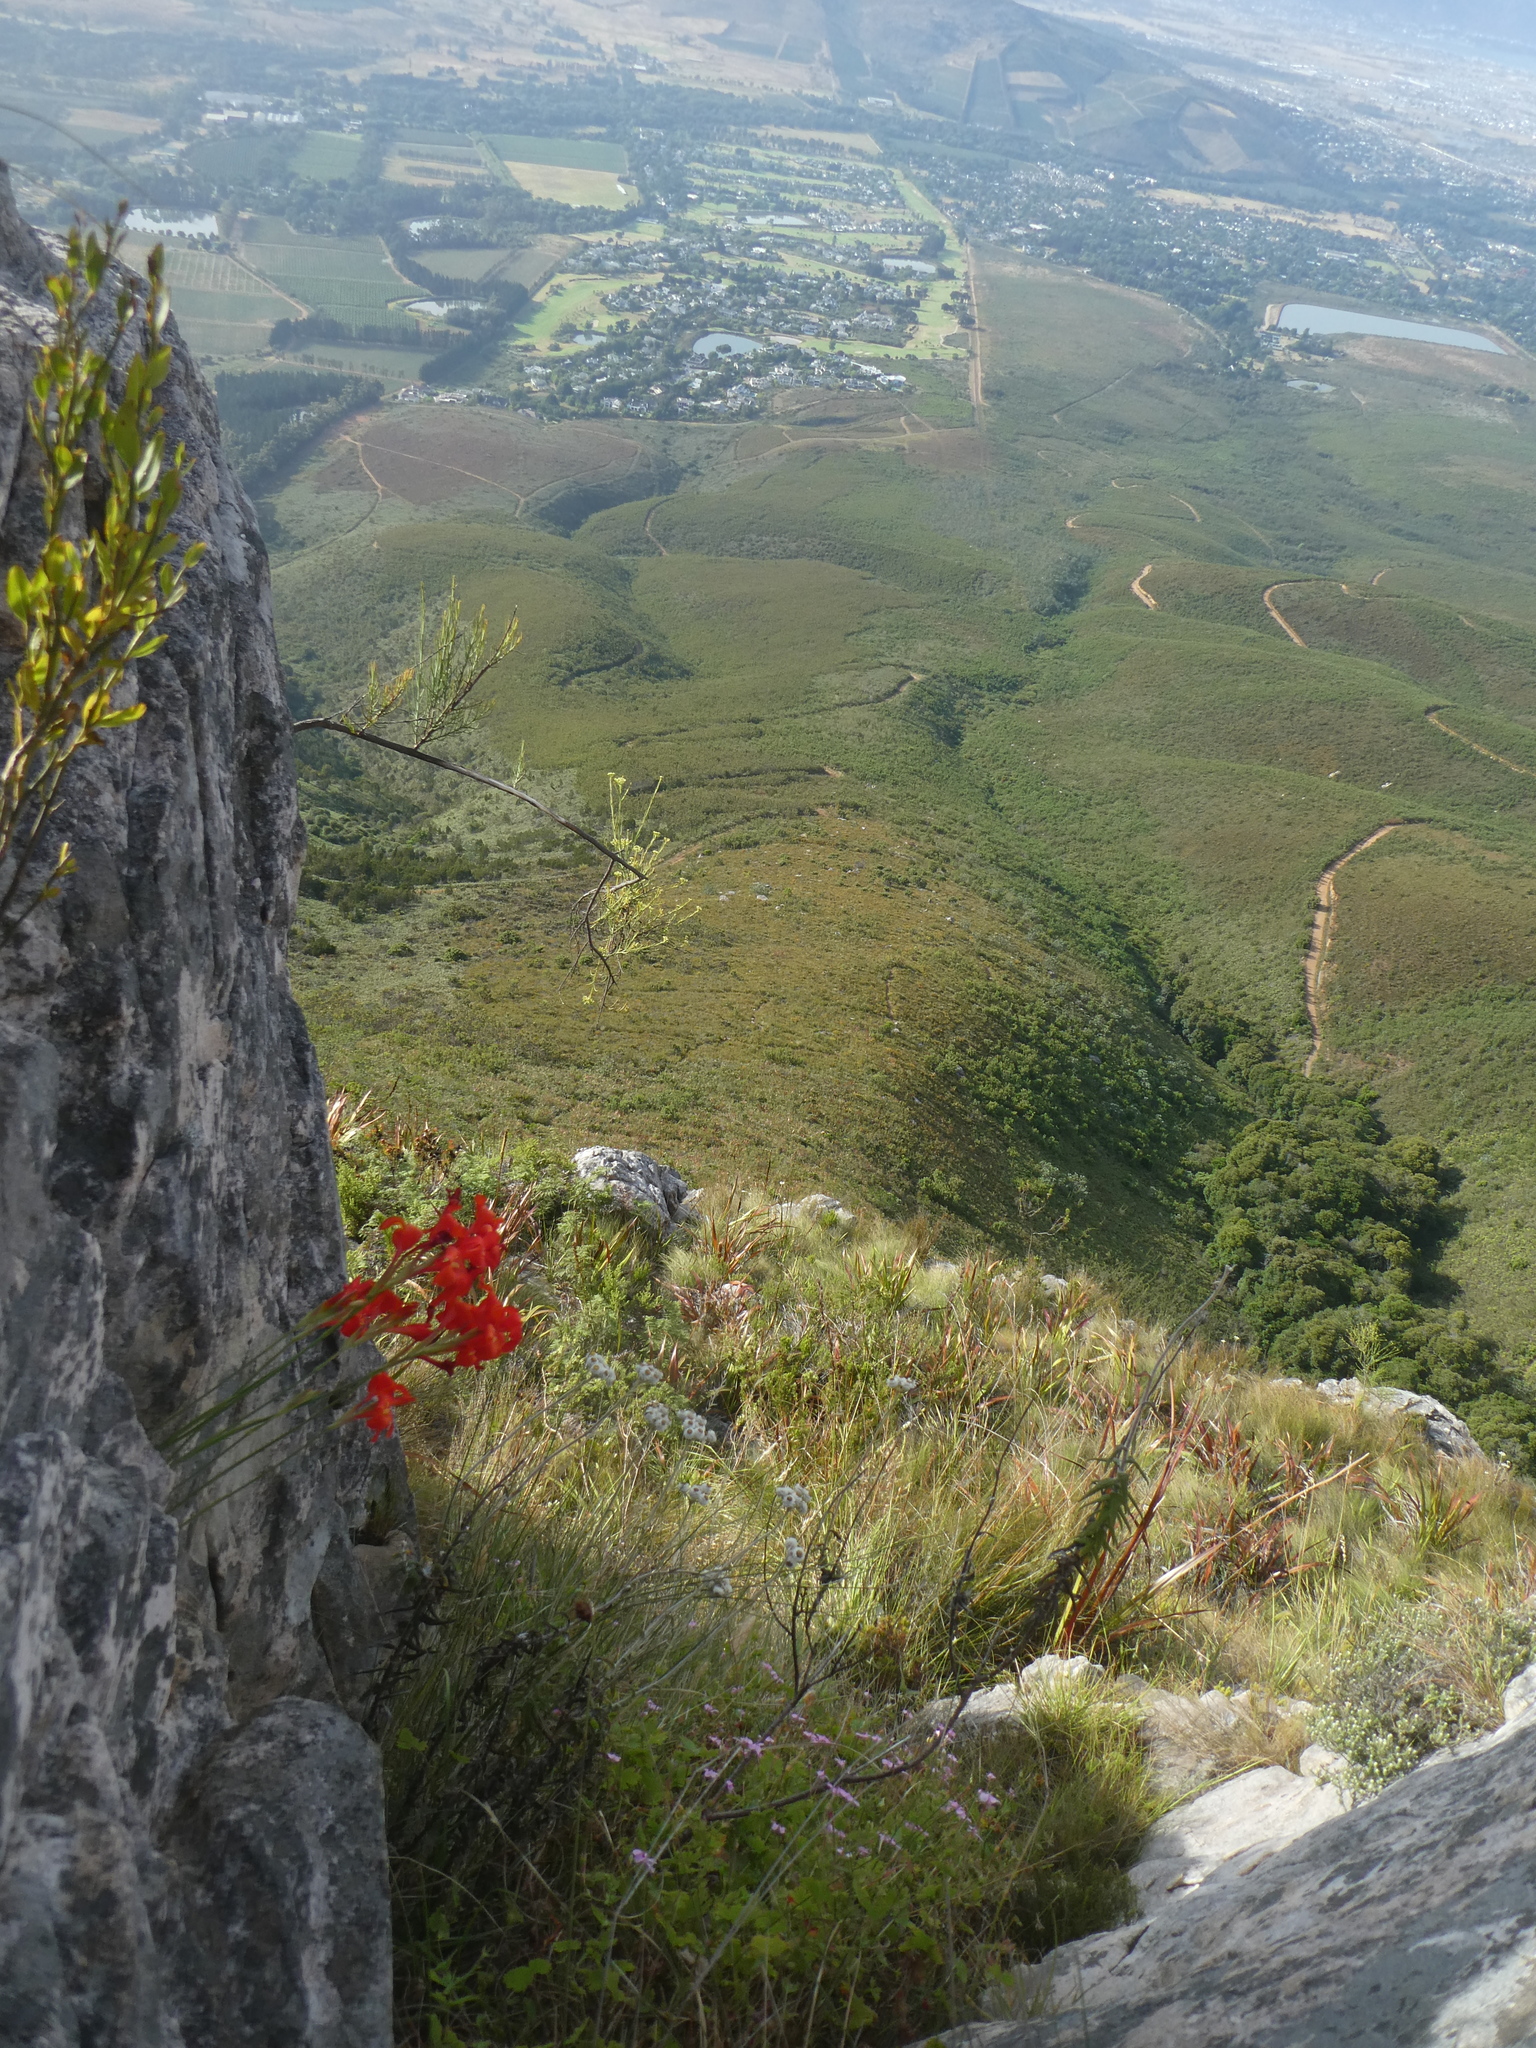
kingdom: Plantae
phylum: Tracheophyta
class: Liliopsida
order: Asparagales
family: Iridaceae
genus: Gladiolus
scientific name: Gladiolus nerineoides
